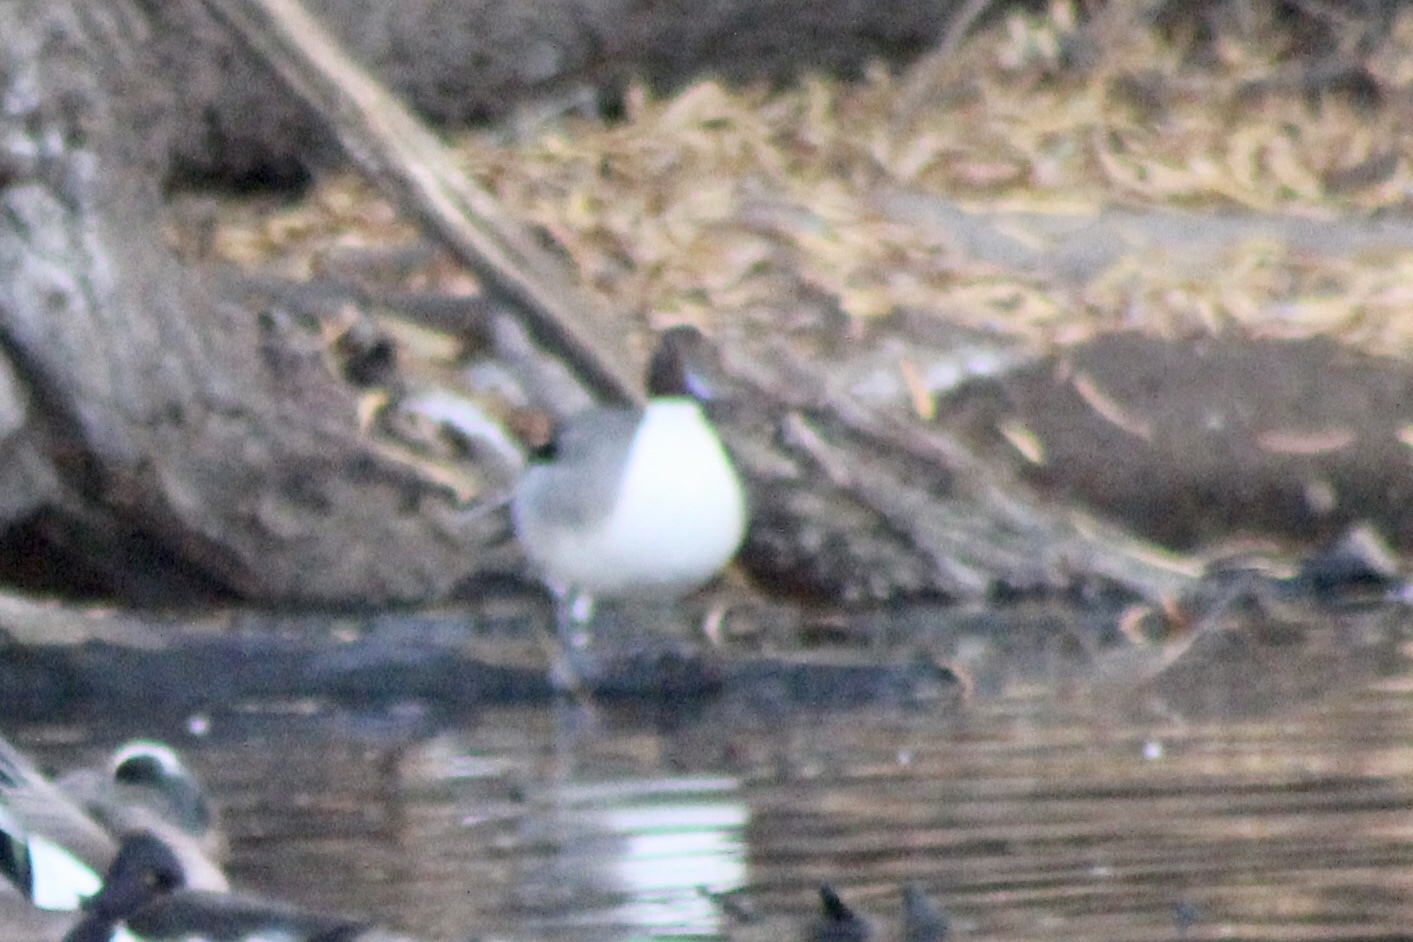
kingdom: Animalia
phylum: Chordata
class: Aves
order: Anseriformes
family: Anatidae
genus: Anas
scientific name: Anas acuta
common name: Northern pintail
